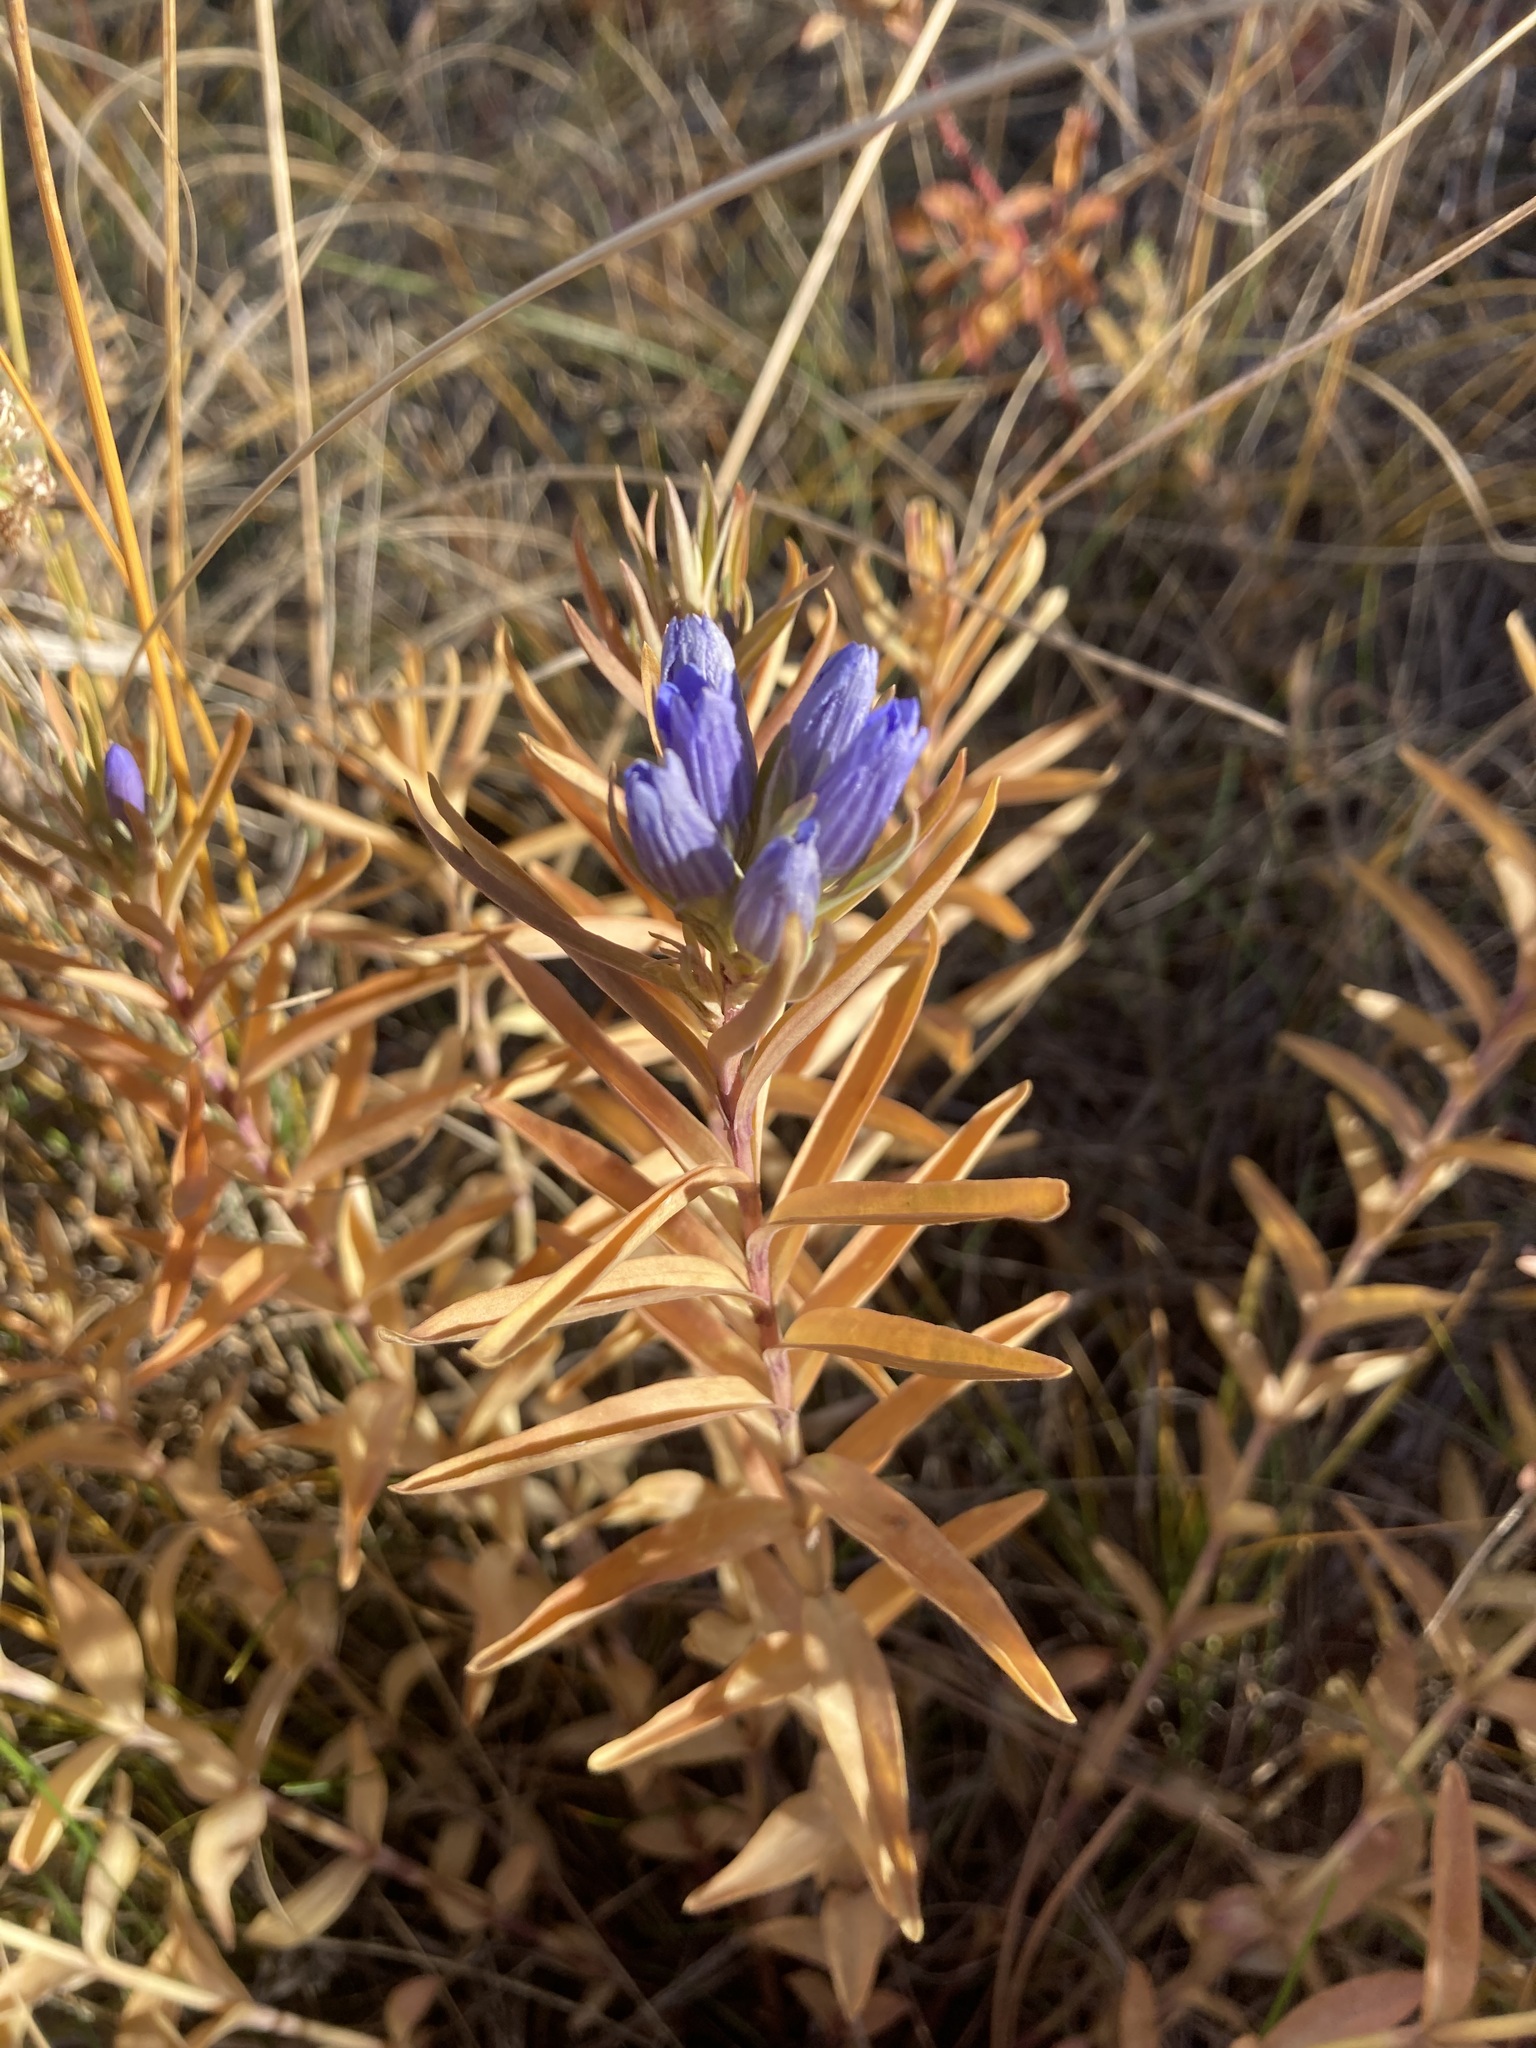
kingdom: Plantae
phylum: Tracheophyta
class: Magnoliopsida
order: Gentianales
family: Gentianaceae
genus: Gentiana
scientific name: Gentiana affinis
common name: Rocky mountain gentian
